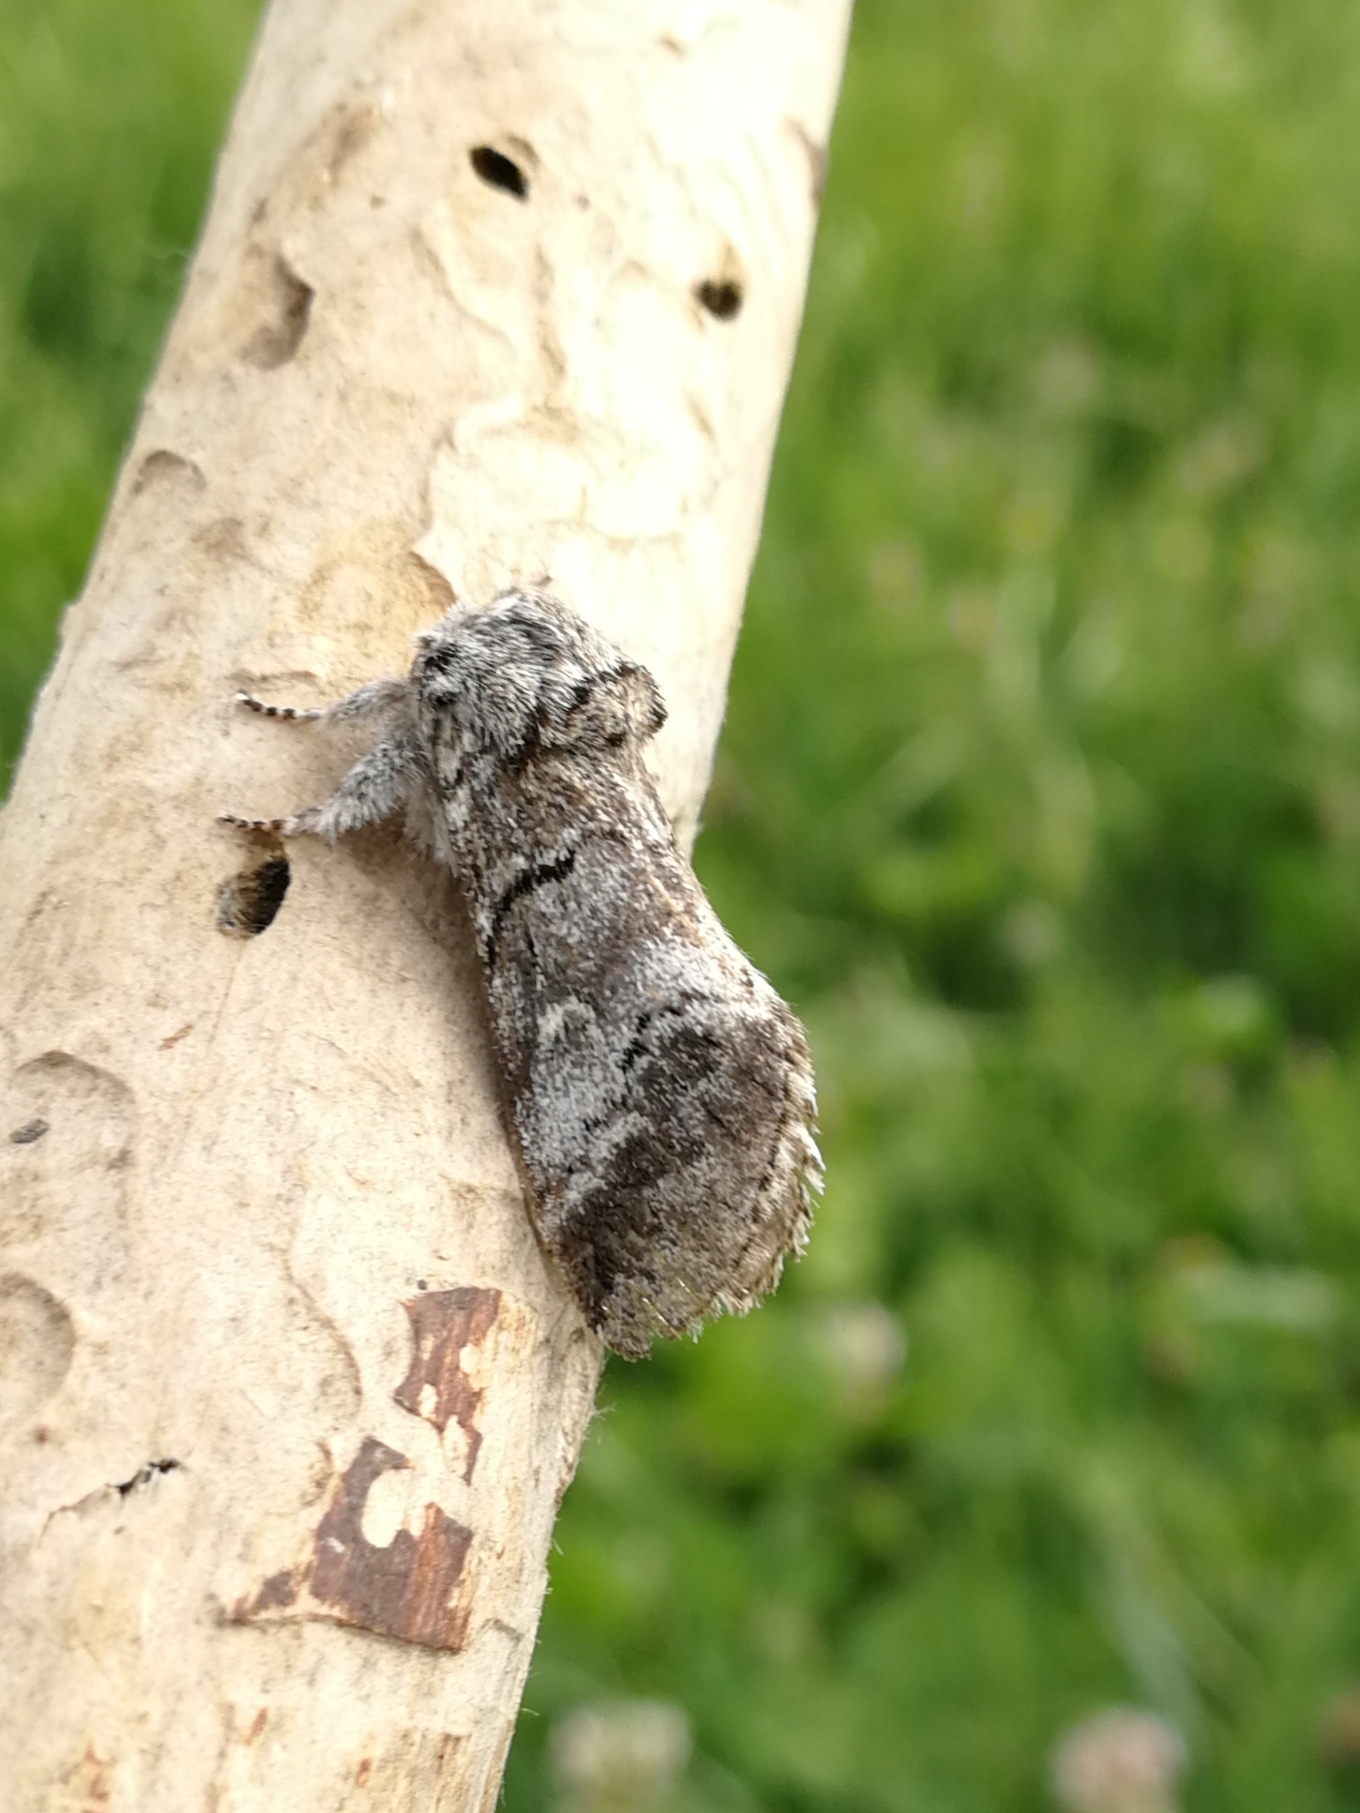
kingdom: Animalia
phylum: Arthropoda
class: Insecta
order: Lepidoptera
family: Notodontidae
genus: Drymonia
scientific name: Drymonia querna
